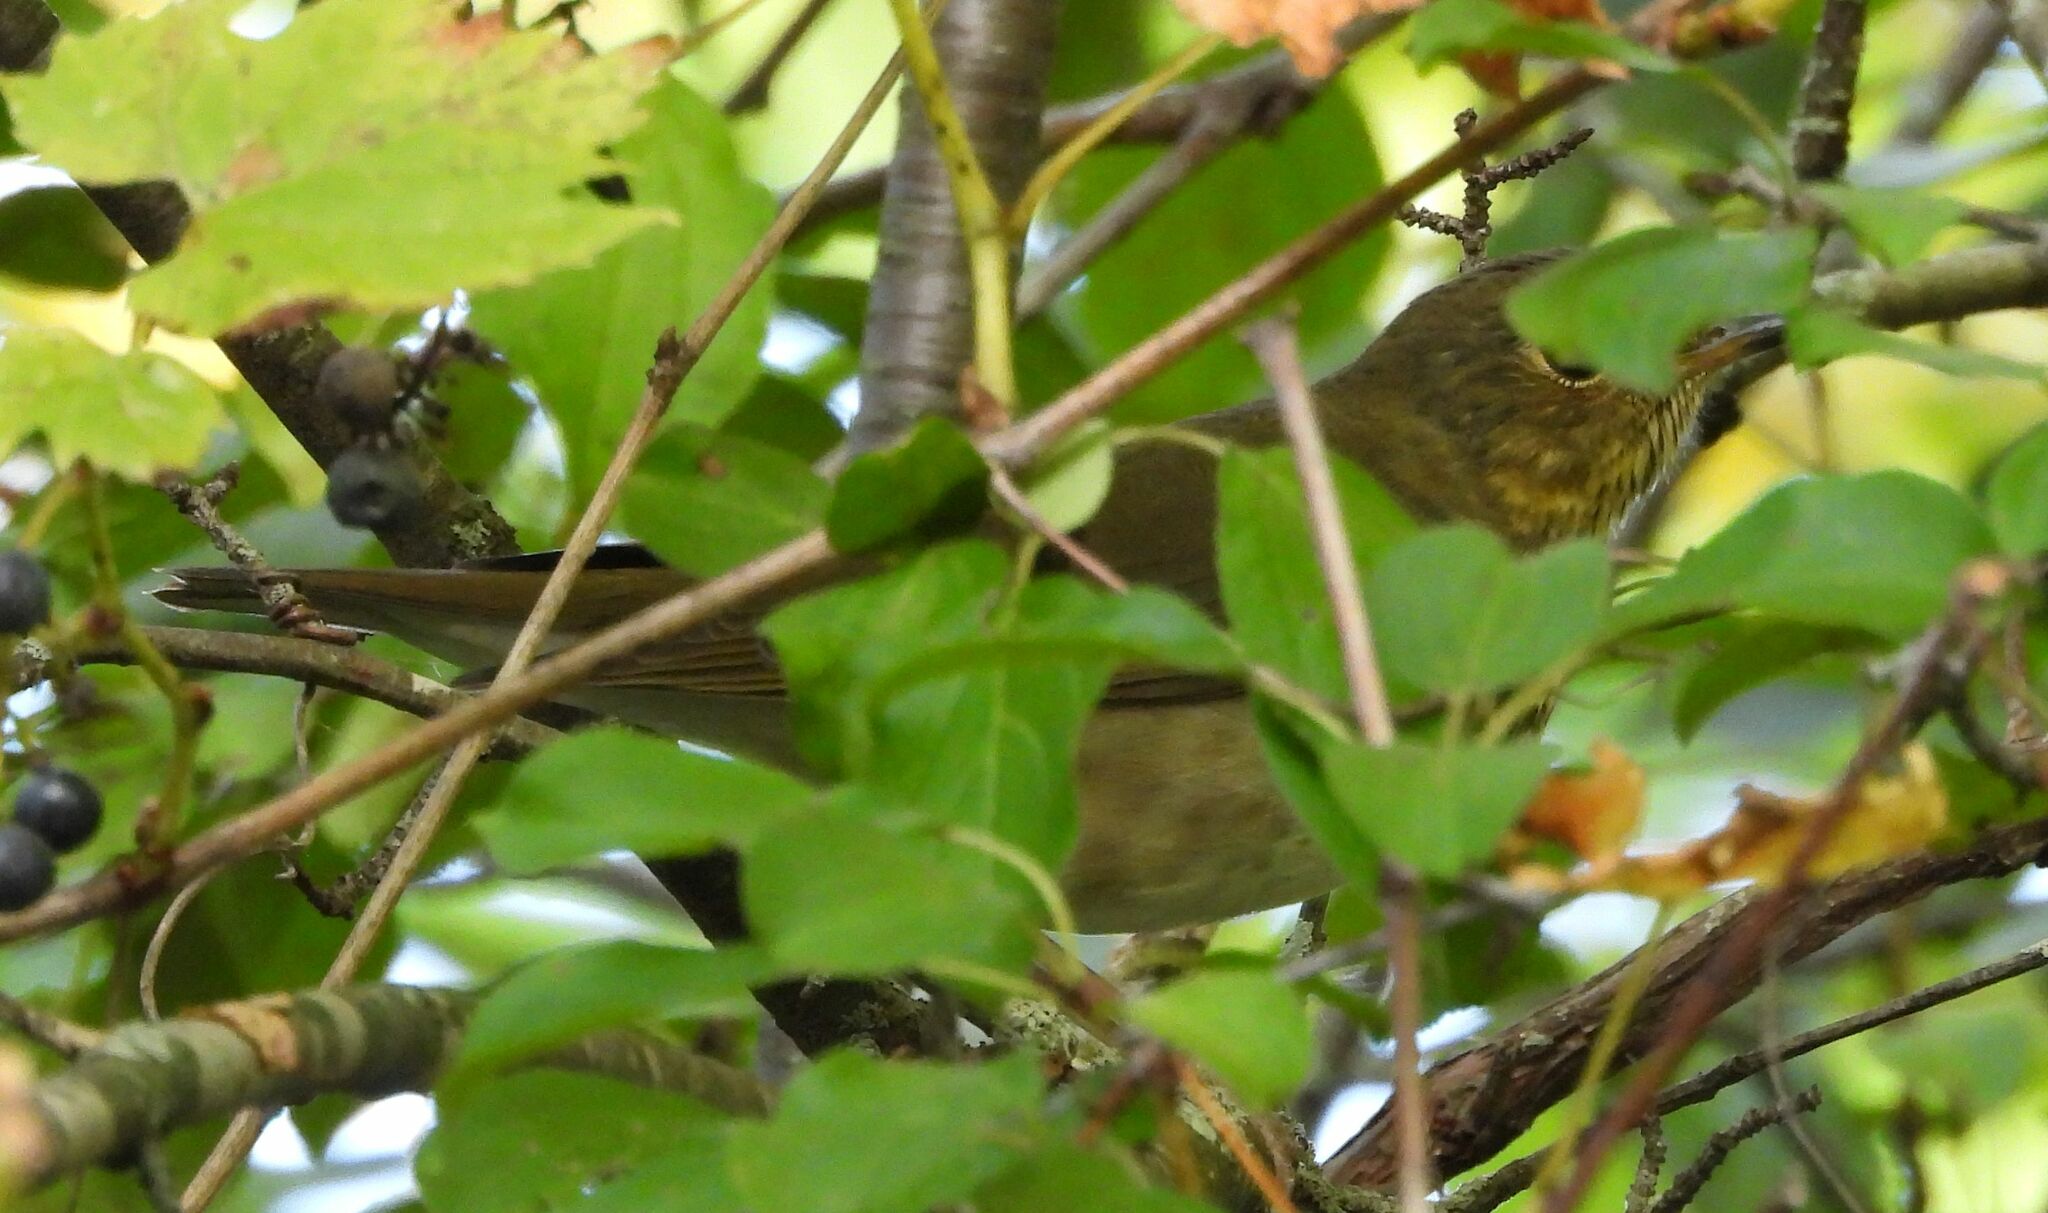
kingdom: Animalia
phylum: Chordata
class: Aves
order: Passeriformes
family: Turdidae
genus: Catharus
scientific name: Catharus ustulatus
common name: Swainson's thrush
